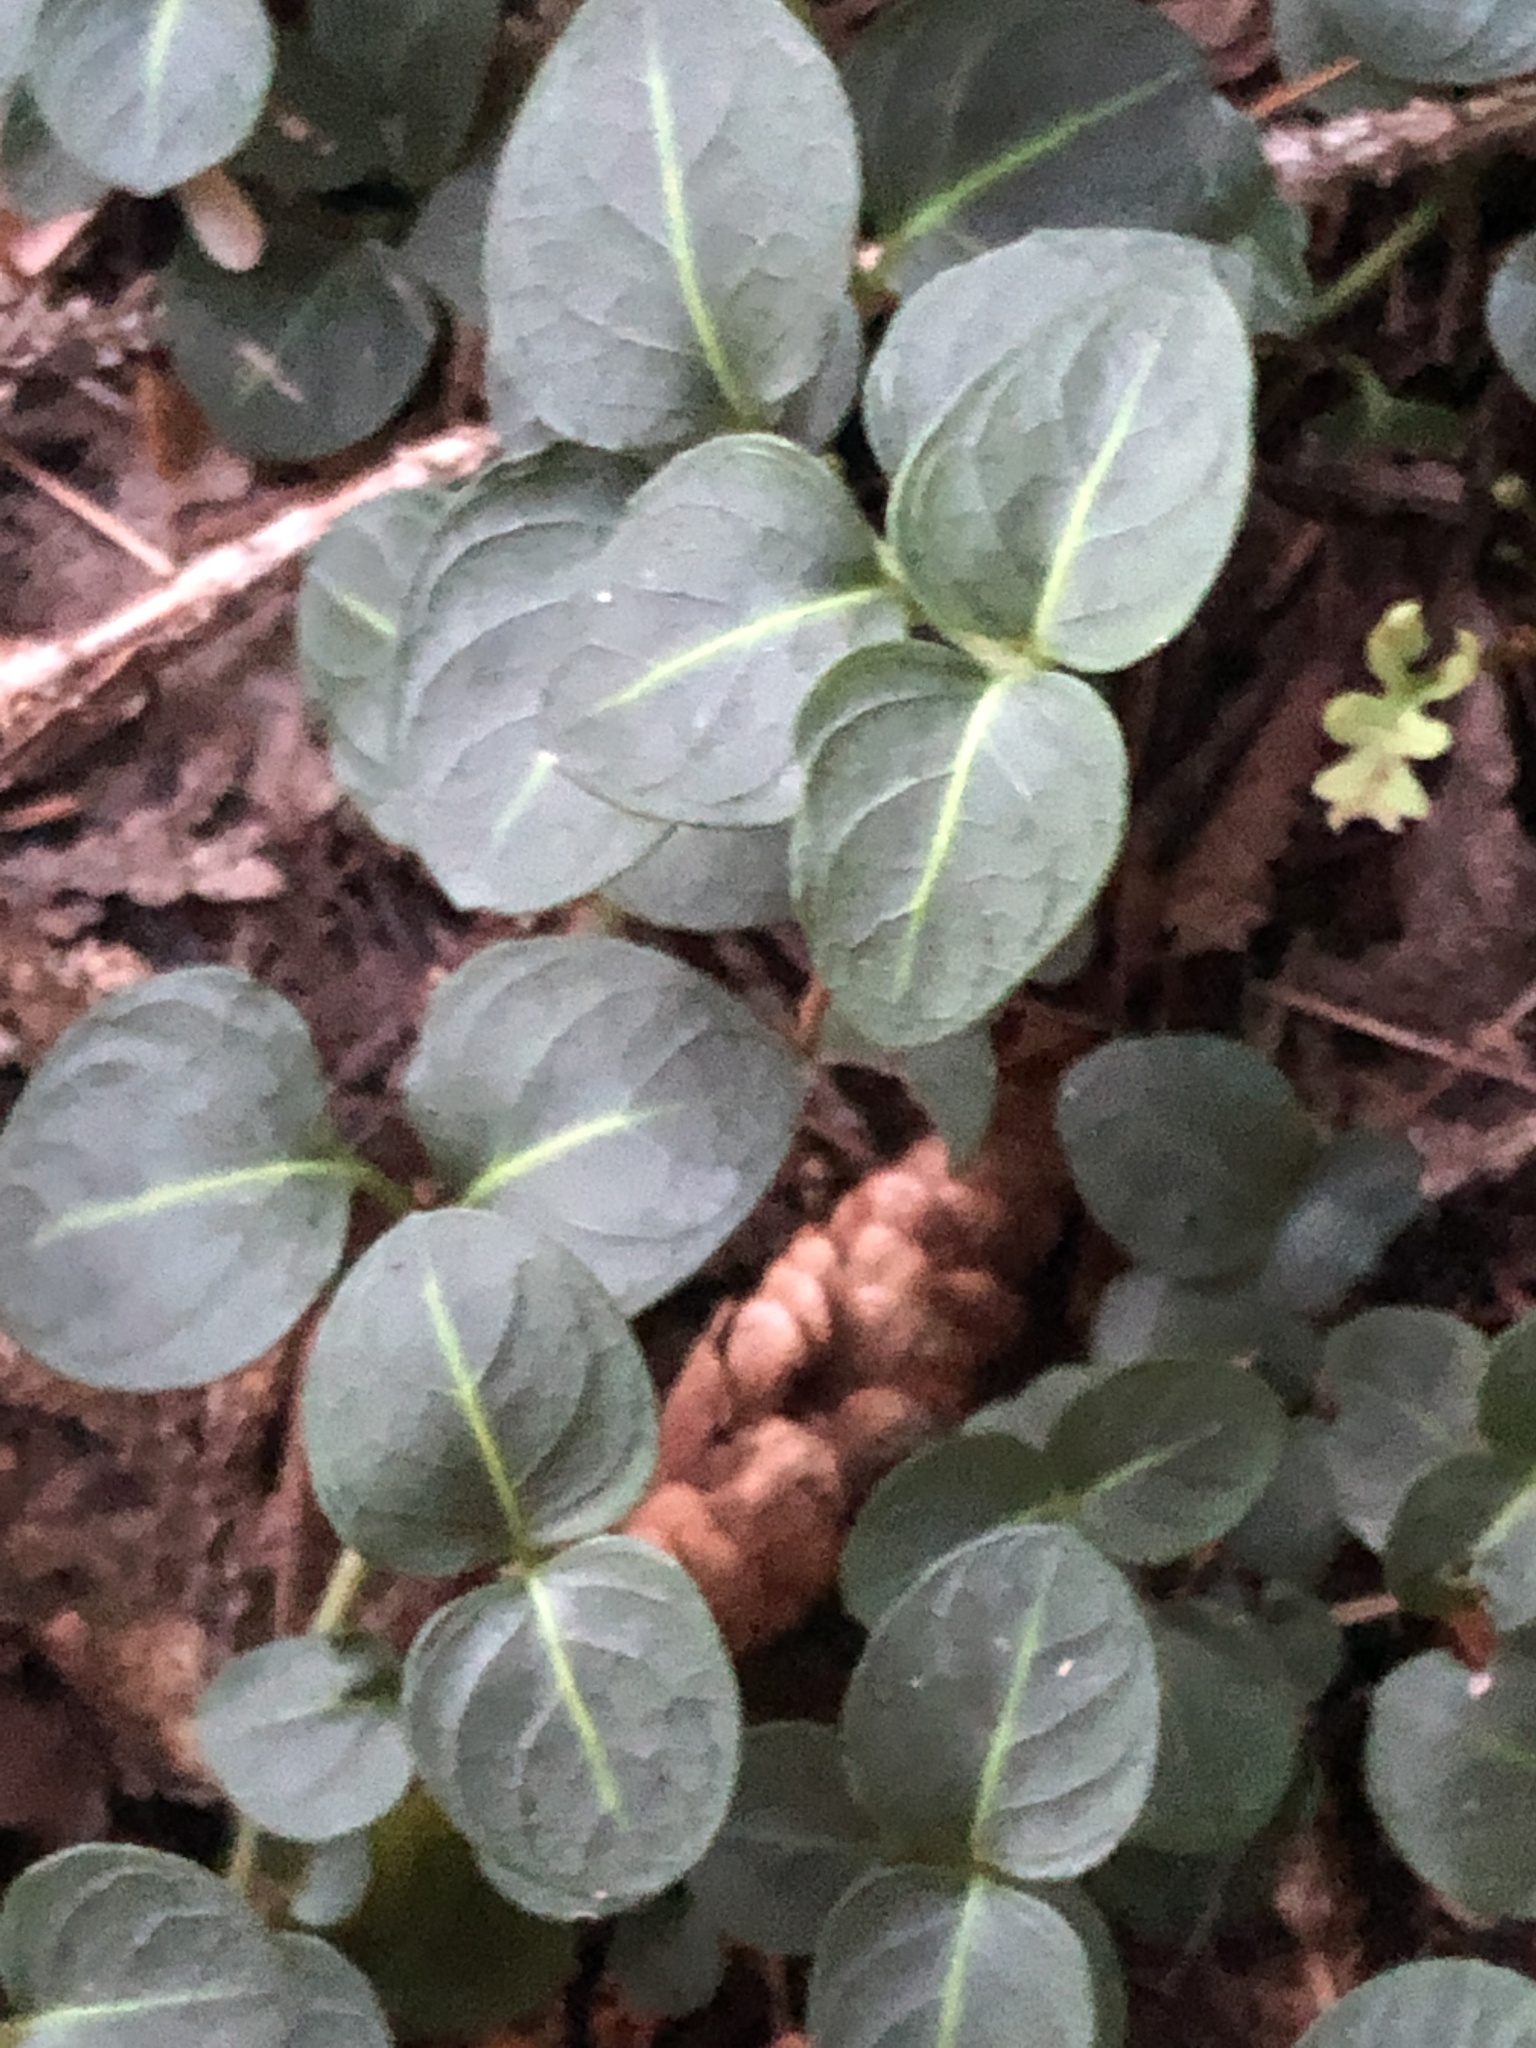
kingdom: Plantae
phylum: Tracheophyta
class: Magnoliopsida
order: Gentianales
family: Rubiaceae
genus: Mitchella
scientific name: Mitchella repens
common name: Partridge-berry
